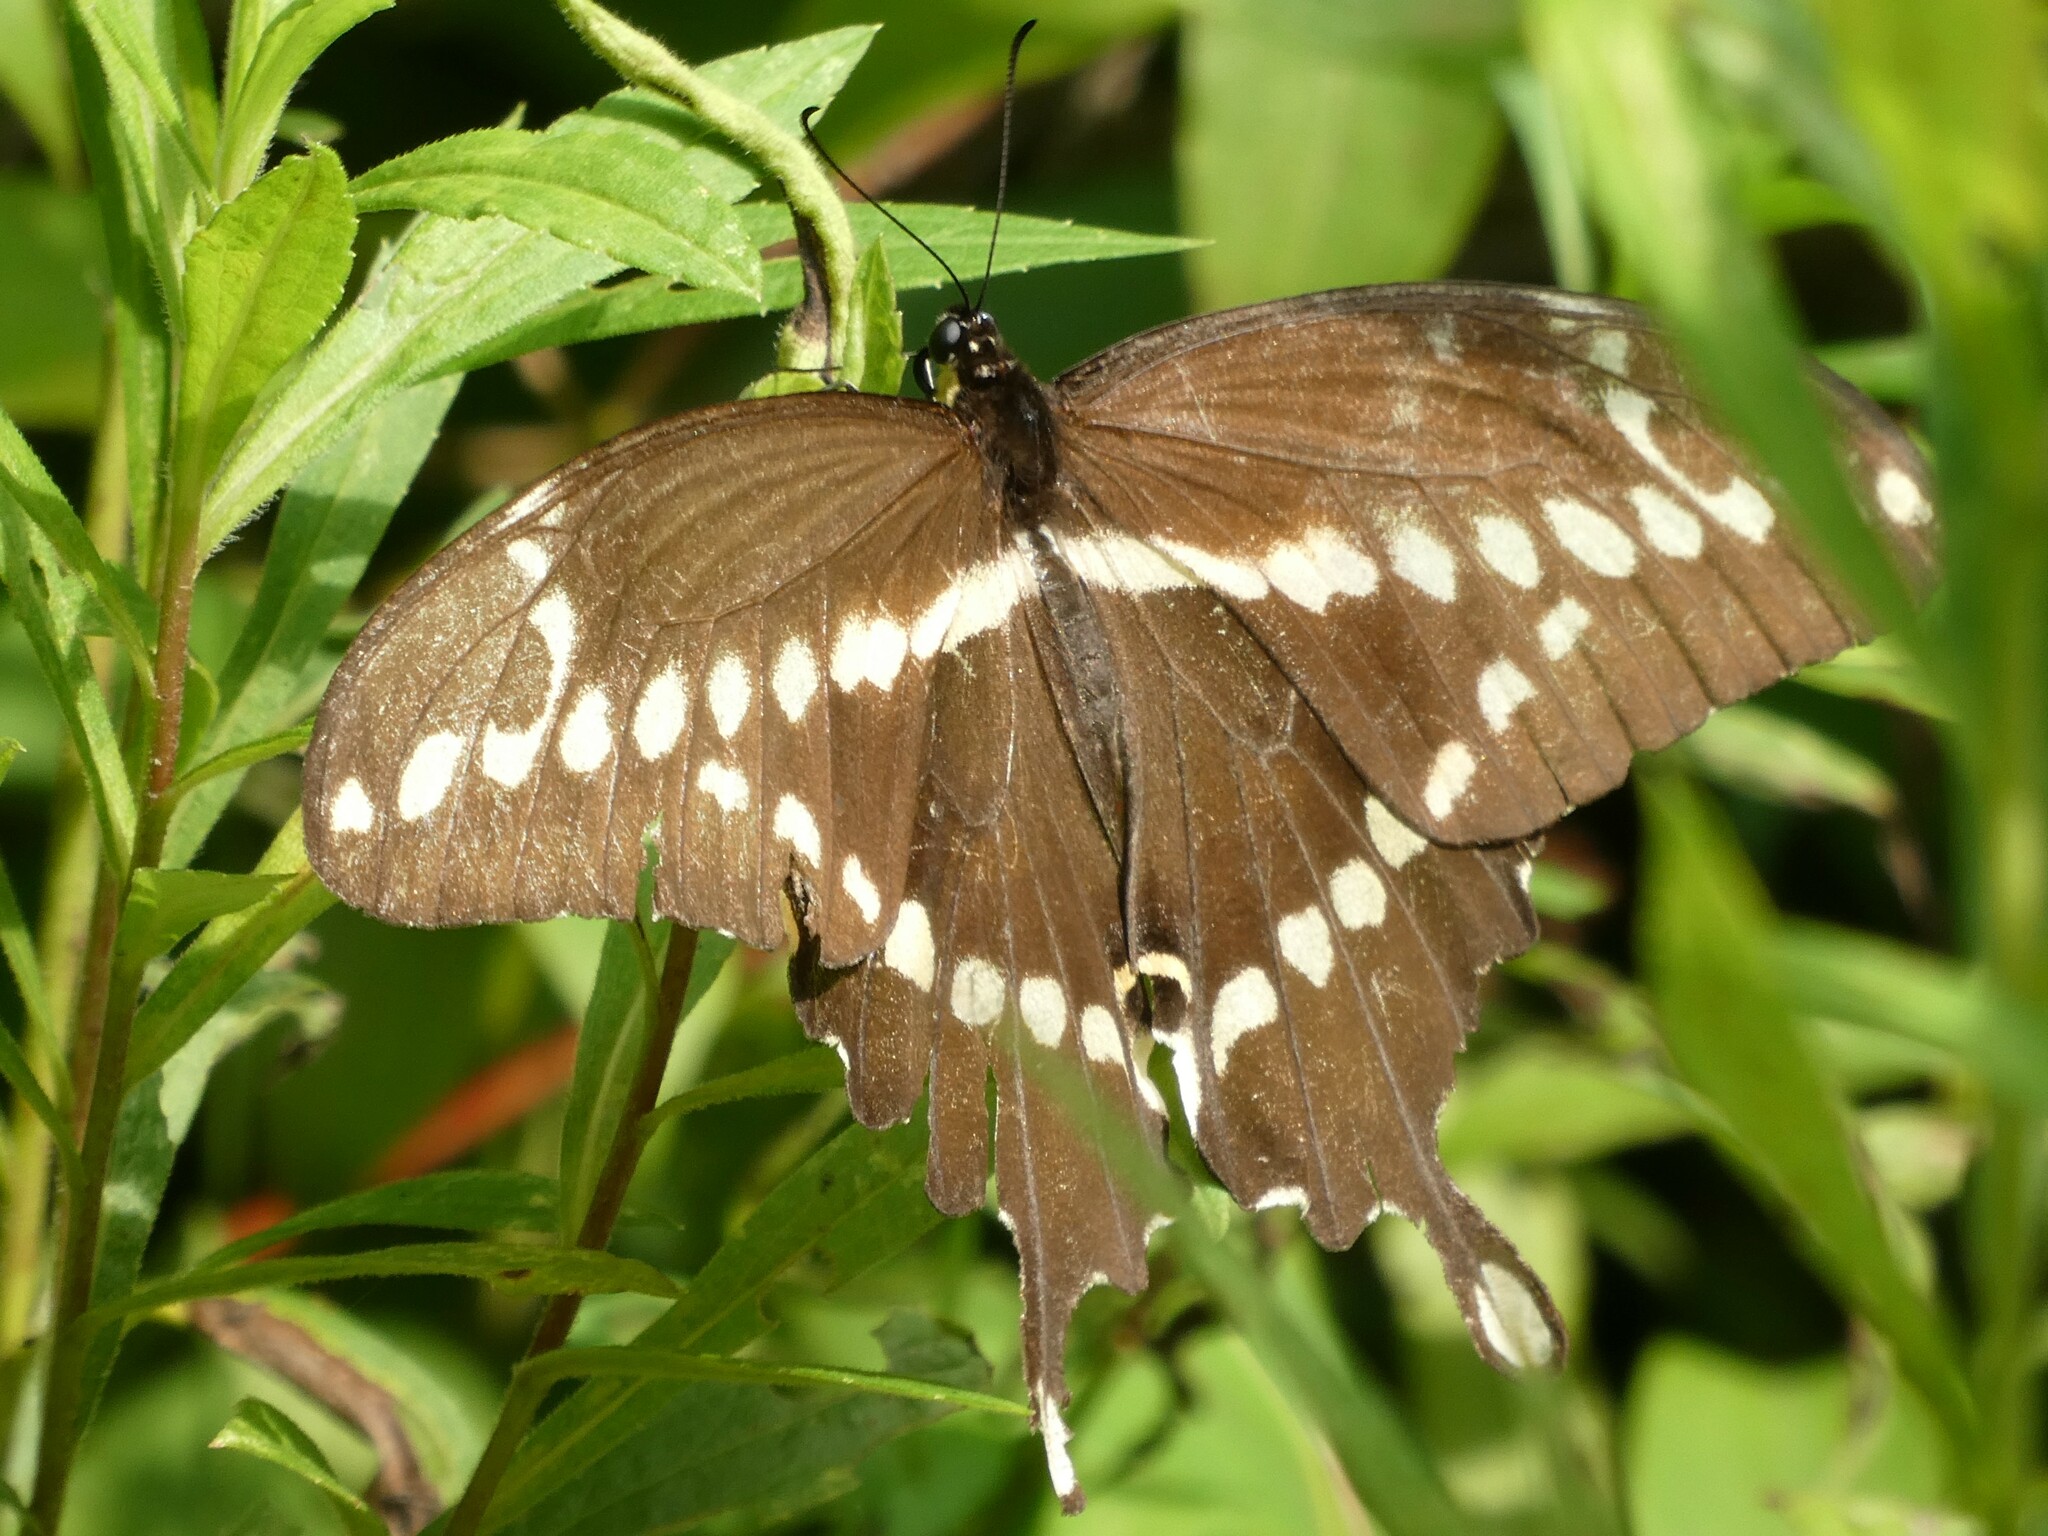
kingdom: Animalia
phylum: Arthropoda
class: Insecta
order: Lepidoptera
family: Papilionidae
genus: Papilio
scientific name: Papilio cresphontes
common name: Giant swallowtail
